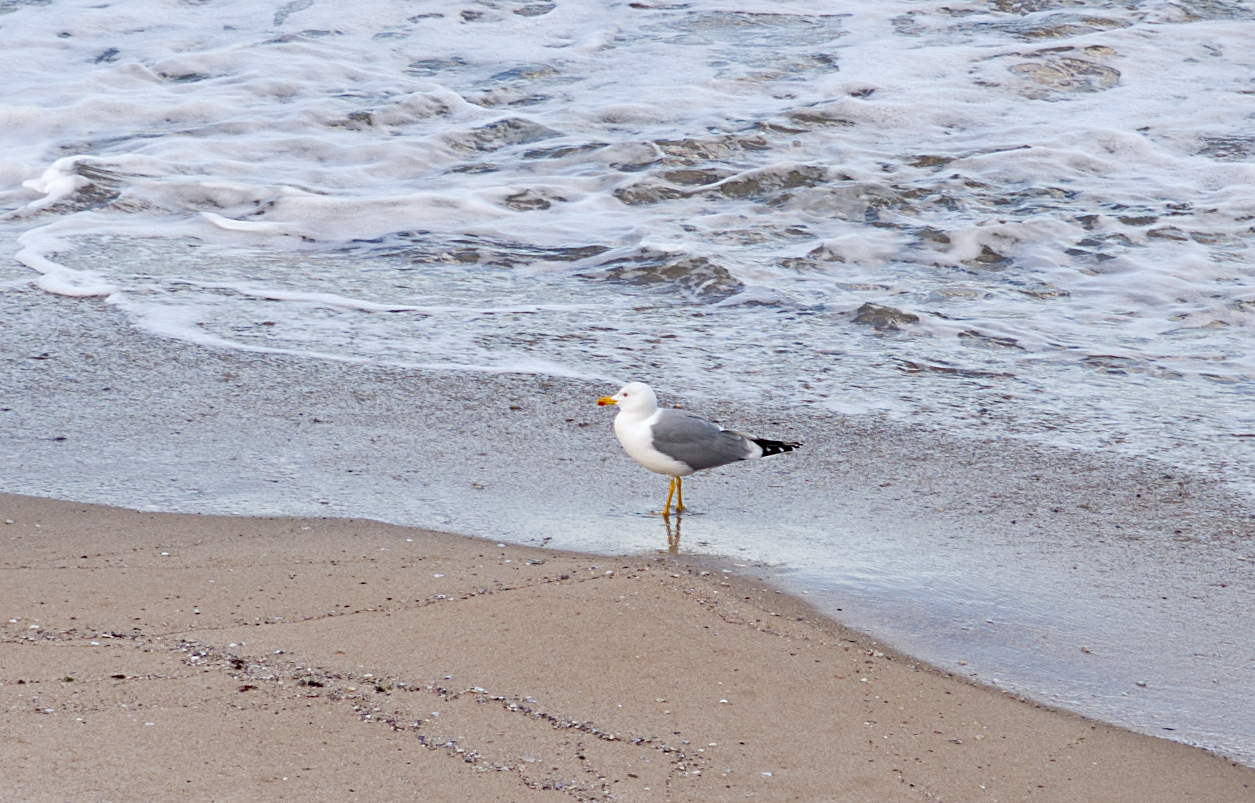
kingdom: Animalia
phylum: Chordata
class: Aves
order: Charadriiformes
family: Laridae
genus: Larus
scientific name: Larus michahellis
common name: Yellow-legged gull
